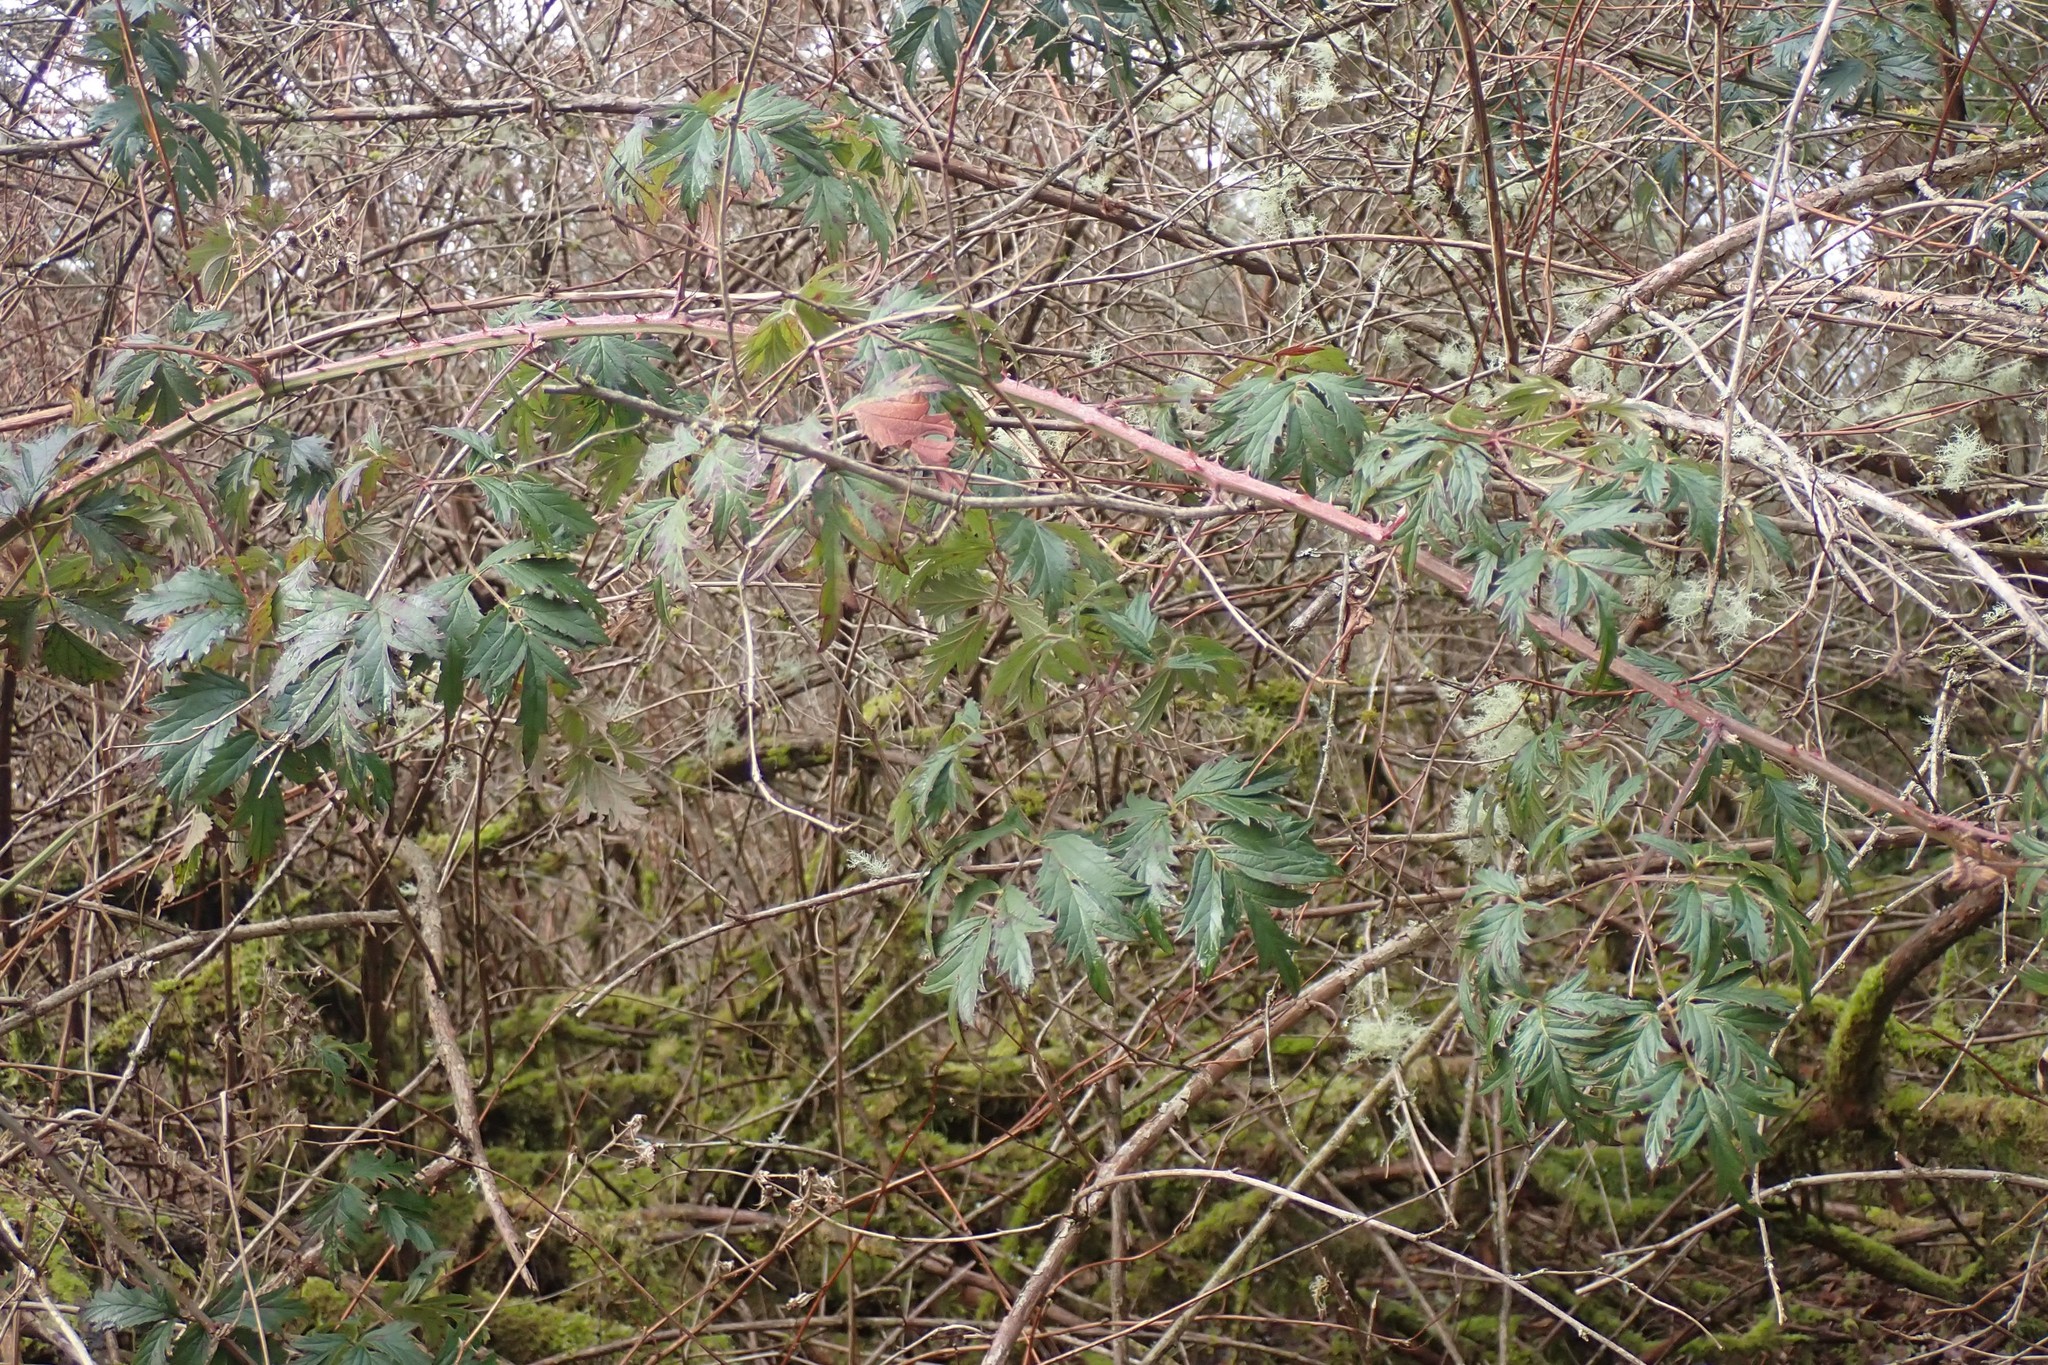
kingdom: Plantae
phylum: Tracheophyta
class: Magnoliopsida
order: Rosales
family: Rosaceae
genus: Rubus
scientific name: Rubus laciniatus
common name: Evergreen blackberry
